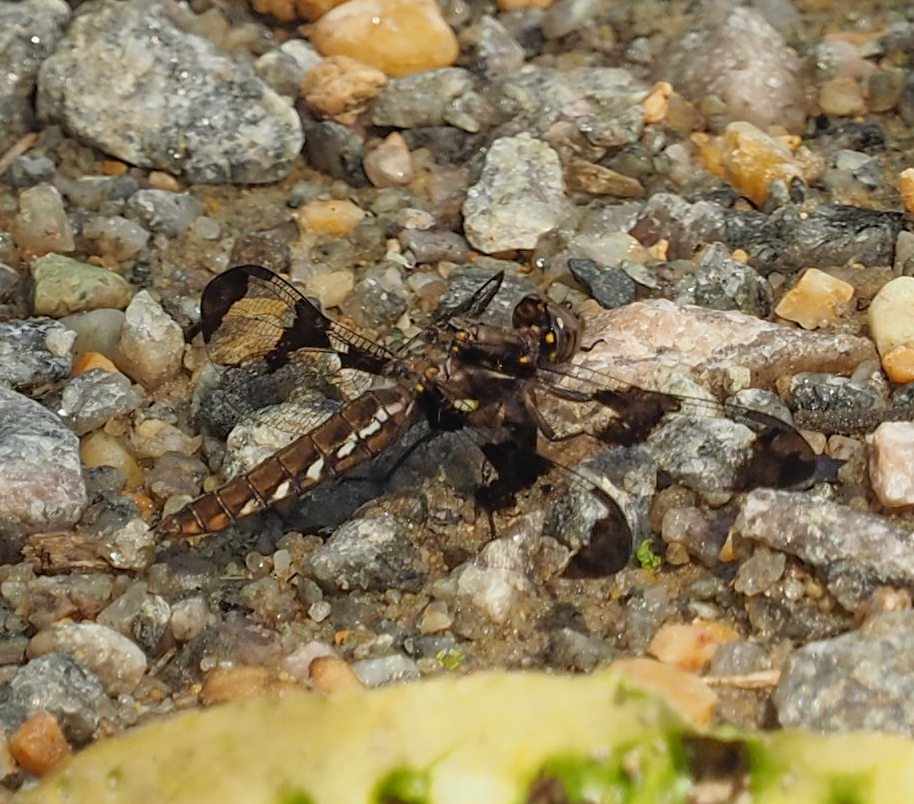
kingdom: Animalia
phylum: Arthropoda
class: Insecta
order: Odonata
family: Libellulidae
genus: Plathemis
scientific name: Plathemis lydia
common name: Common whitetail
